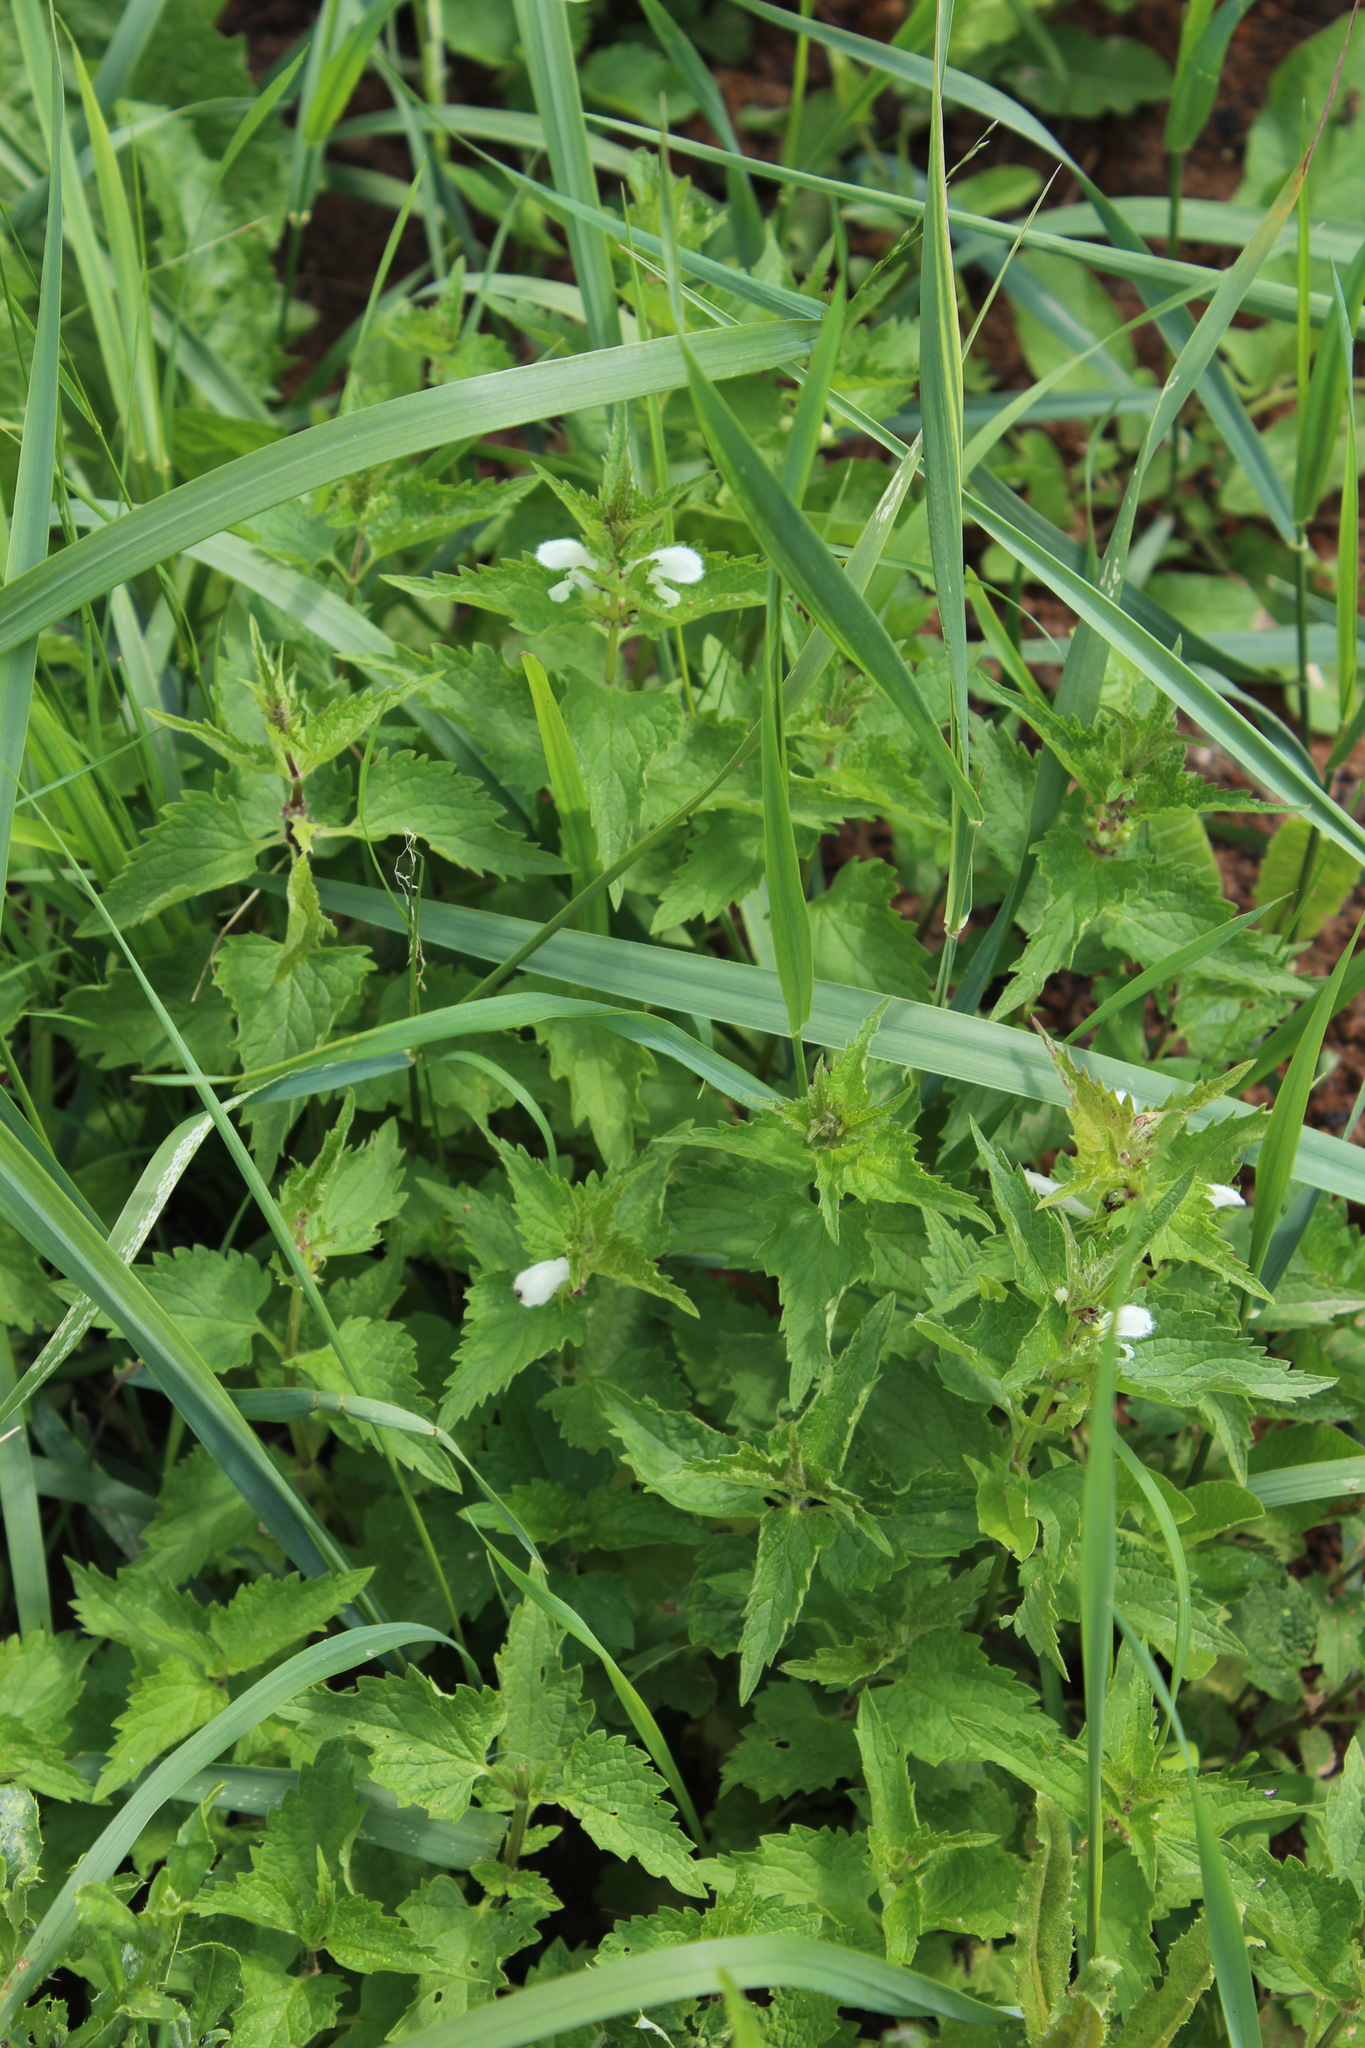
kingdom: Plantae
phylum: Tracheophyta
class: Magnoliopsida
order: Lamiales
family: Lamiaceae
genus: Lamium
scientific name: Lamium album
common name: White dead-nettle
